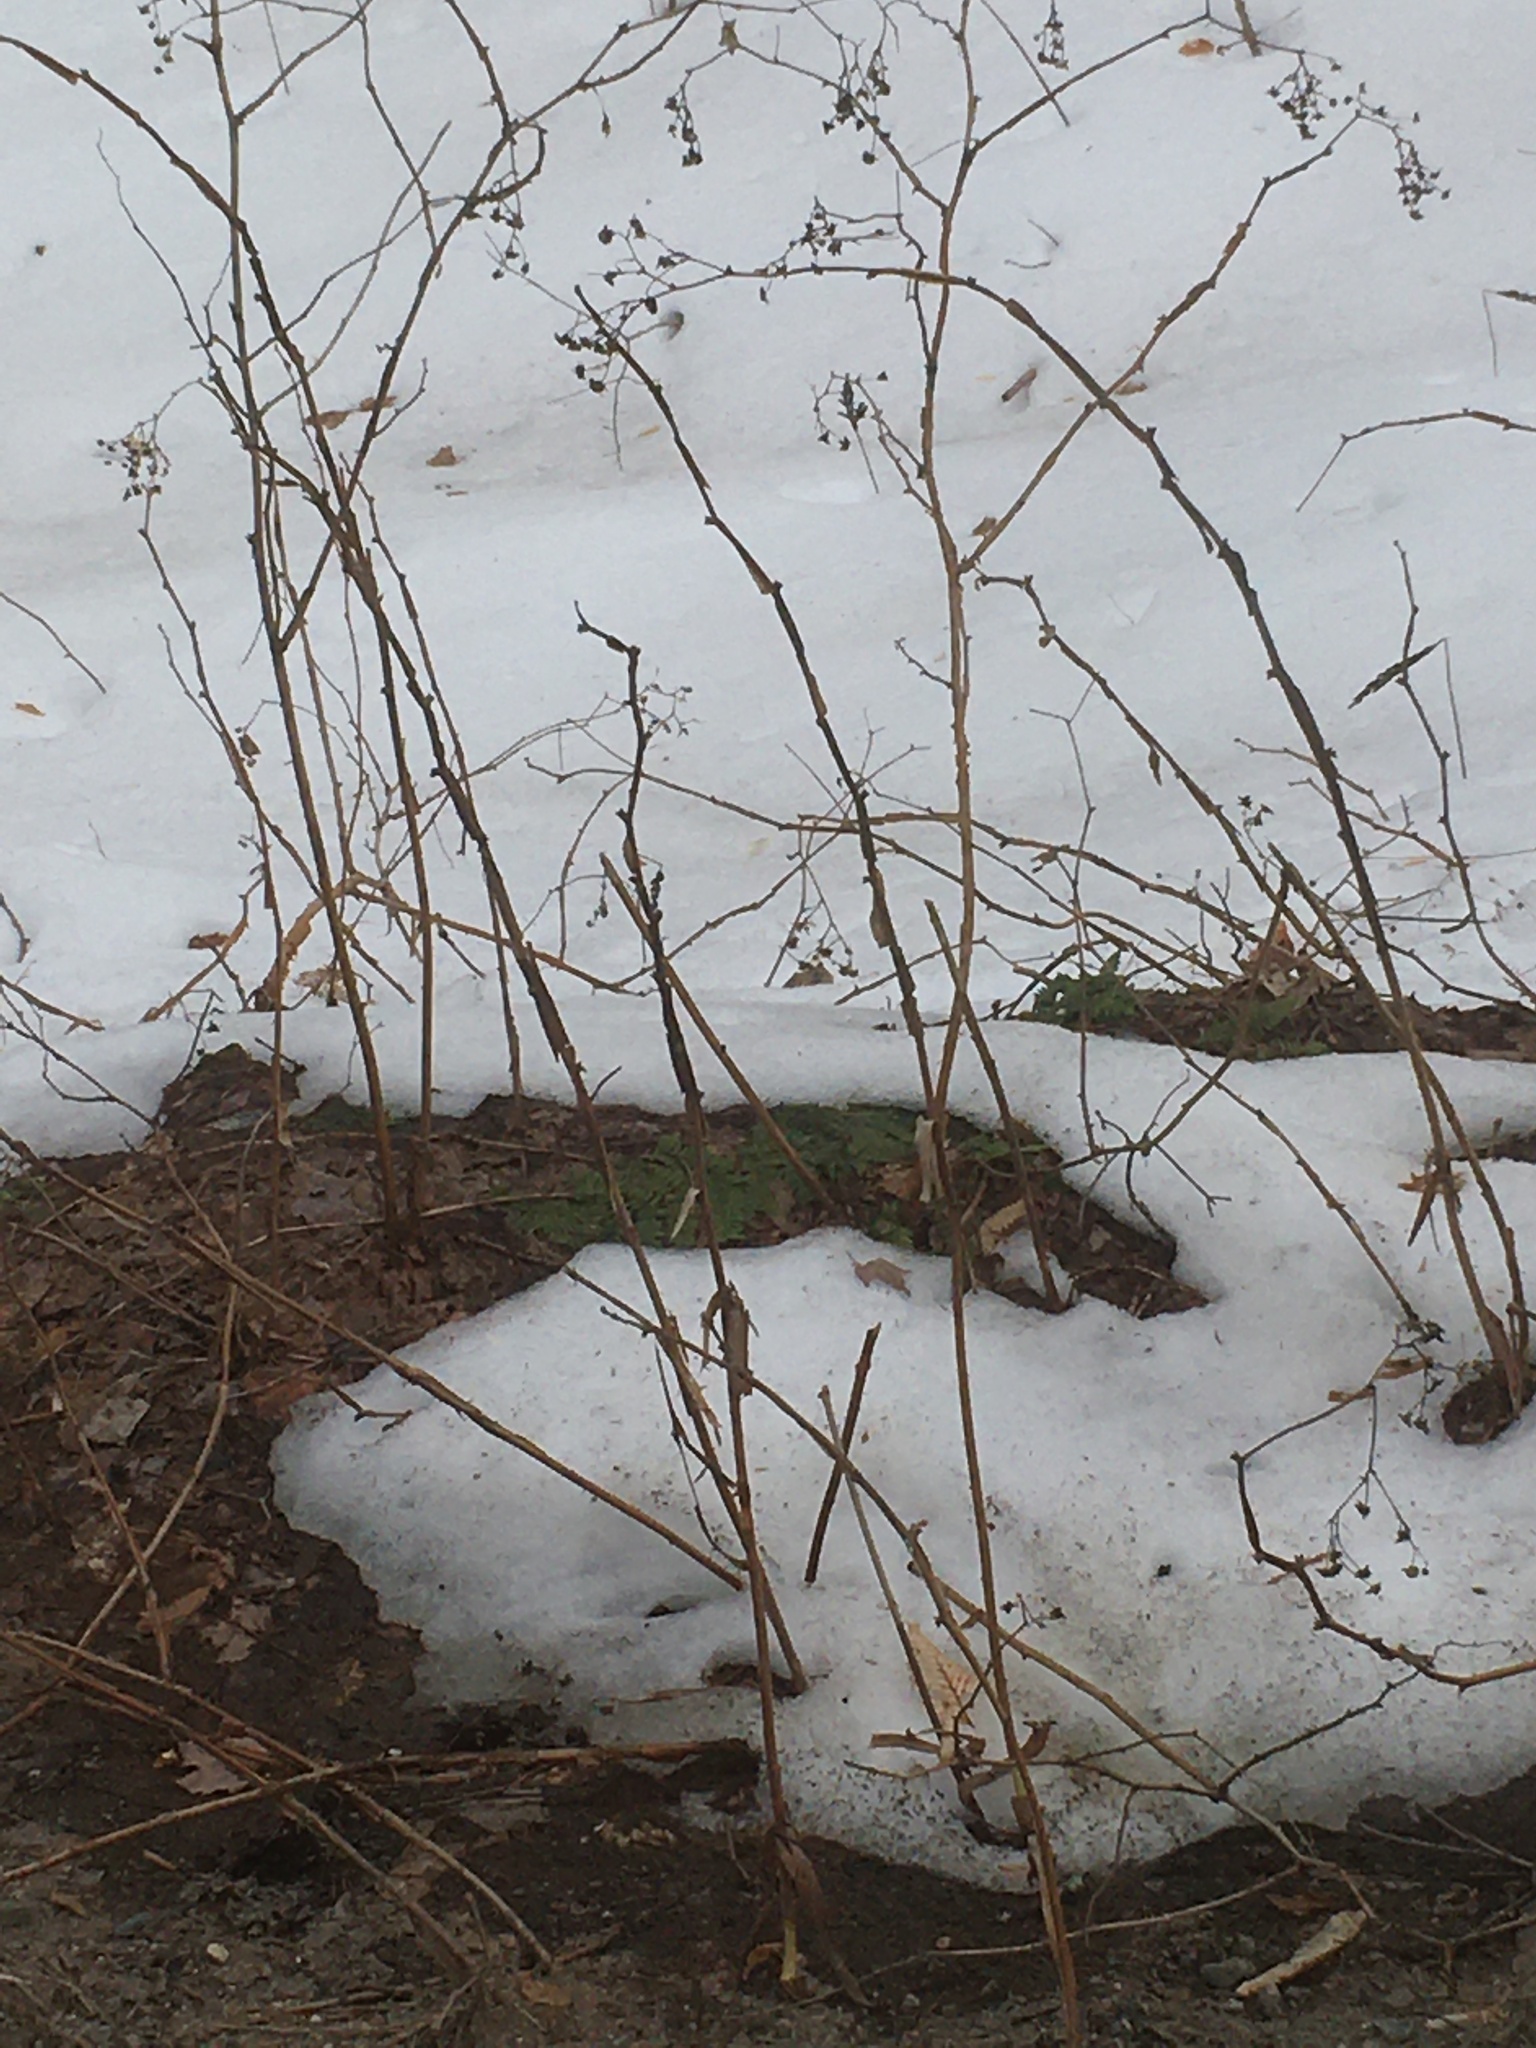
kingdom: Plantae
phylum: Tracheophyta
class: Magnoliopsida
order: Rosales
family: Rosaceae
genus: Rubus
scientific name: Rubus odoratus
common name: Purple-flowered raspberry
